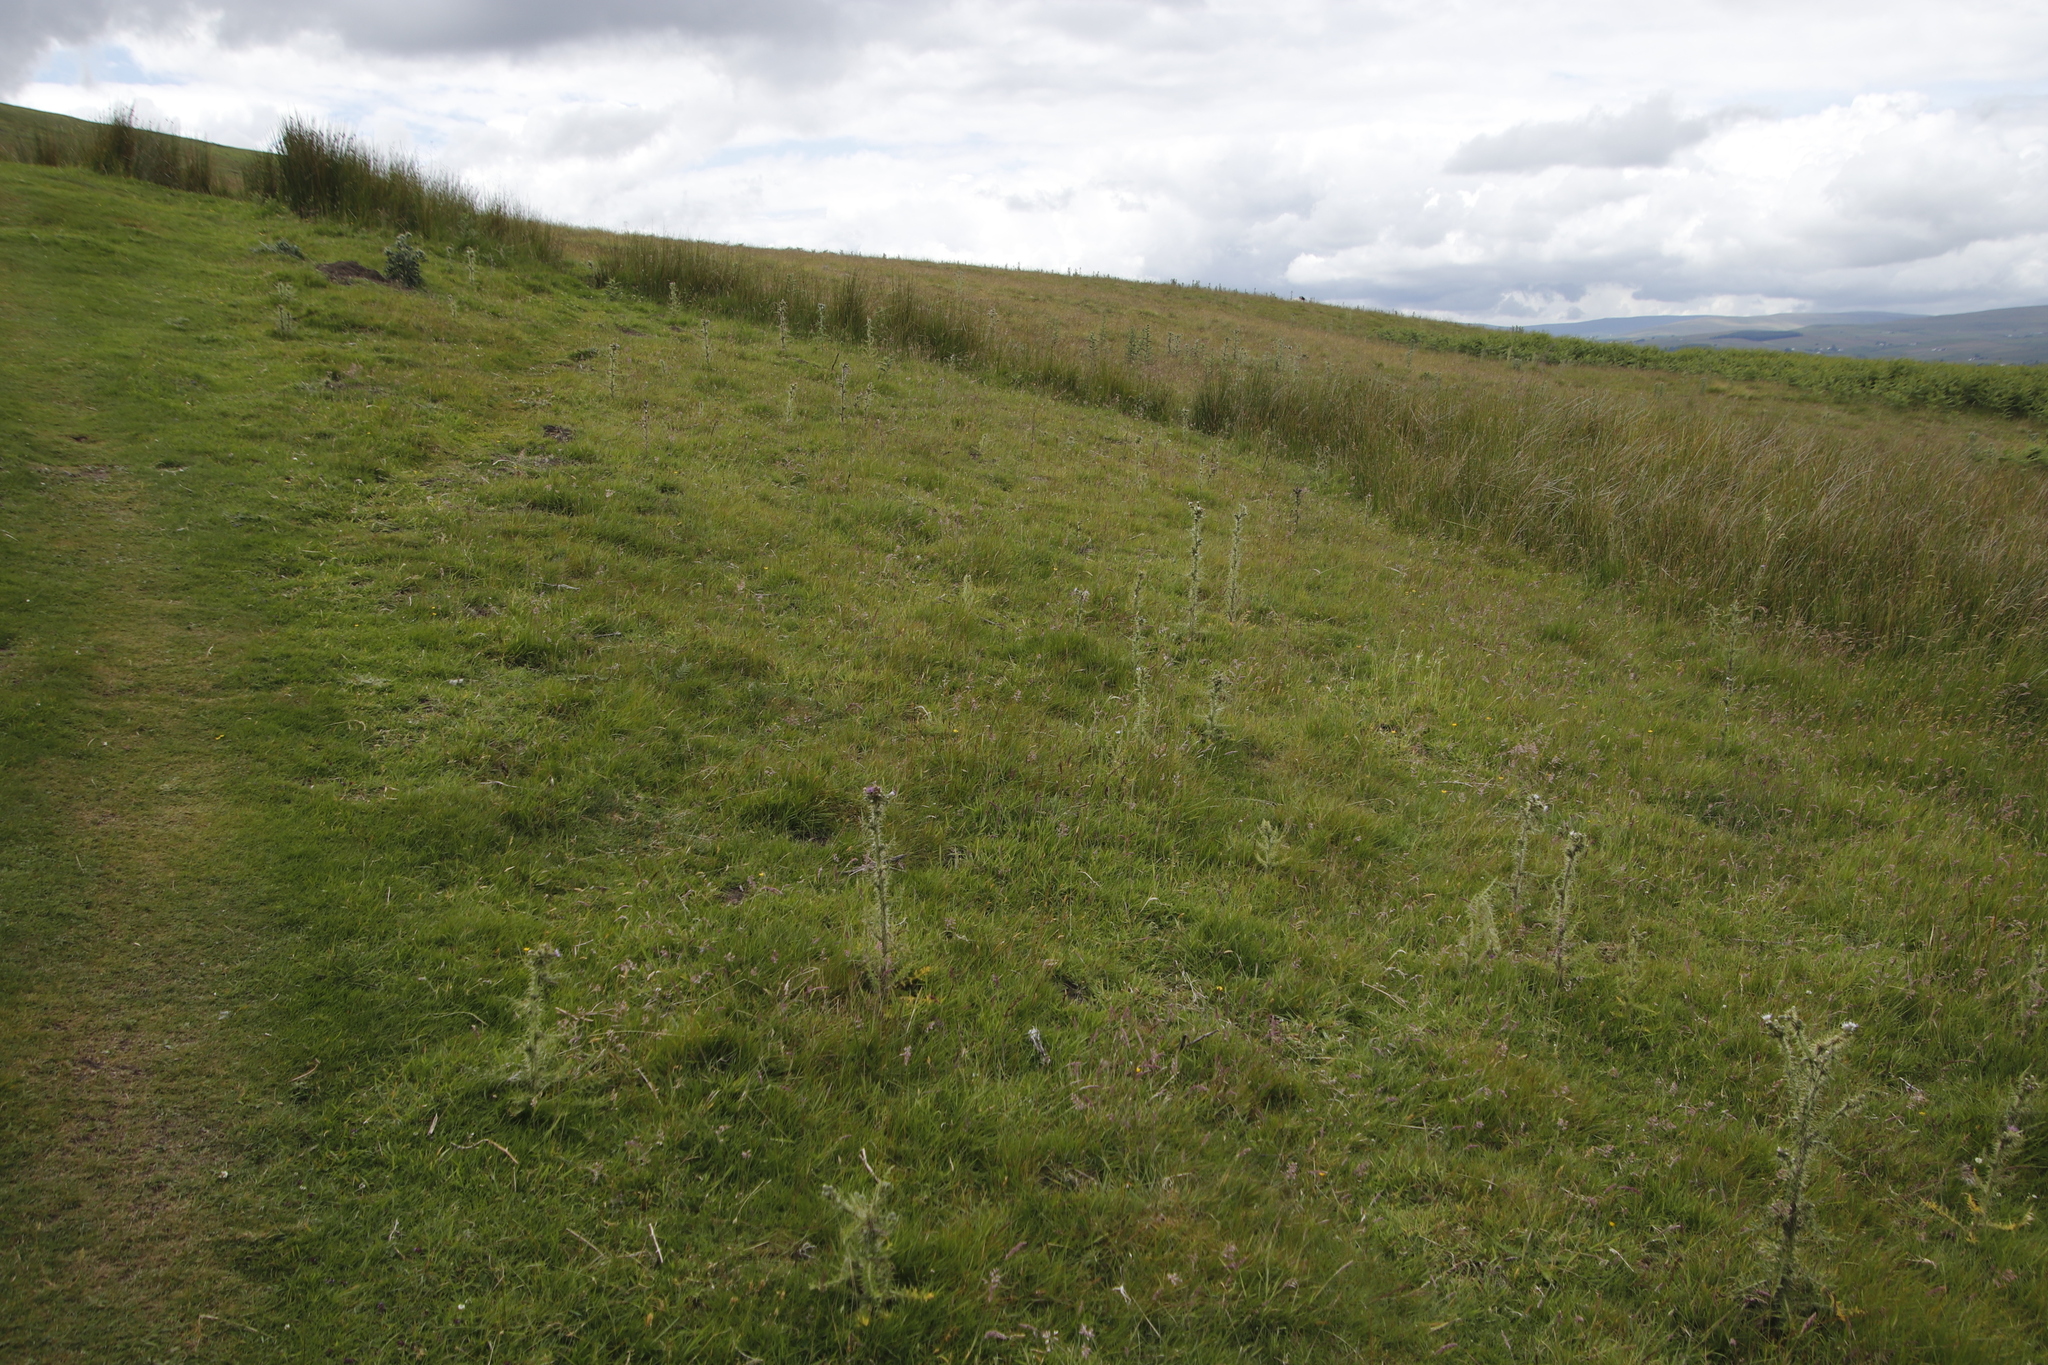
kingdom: Plantae
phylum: Tracheophyta
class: Magnoliopsida
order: Asterales
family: Asteraceae
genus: Cirsium
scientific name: Cirsium palustre
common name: Marsh thistle
